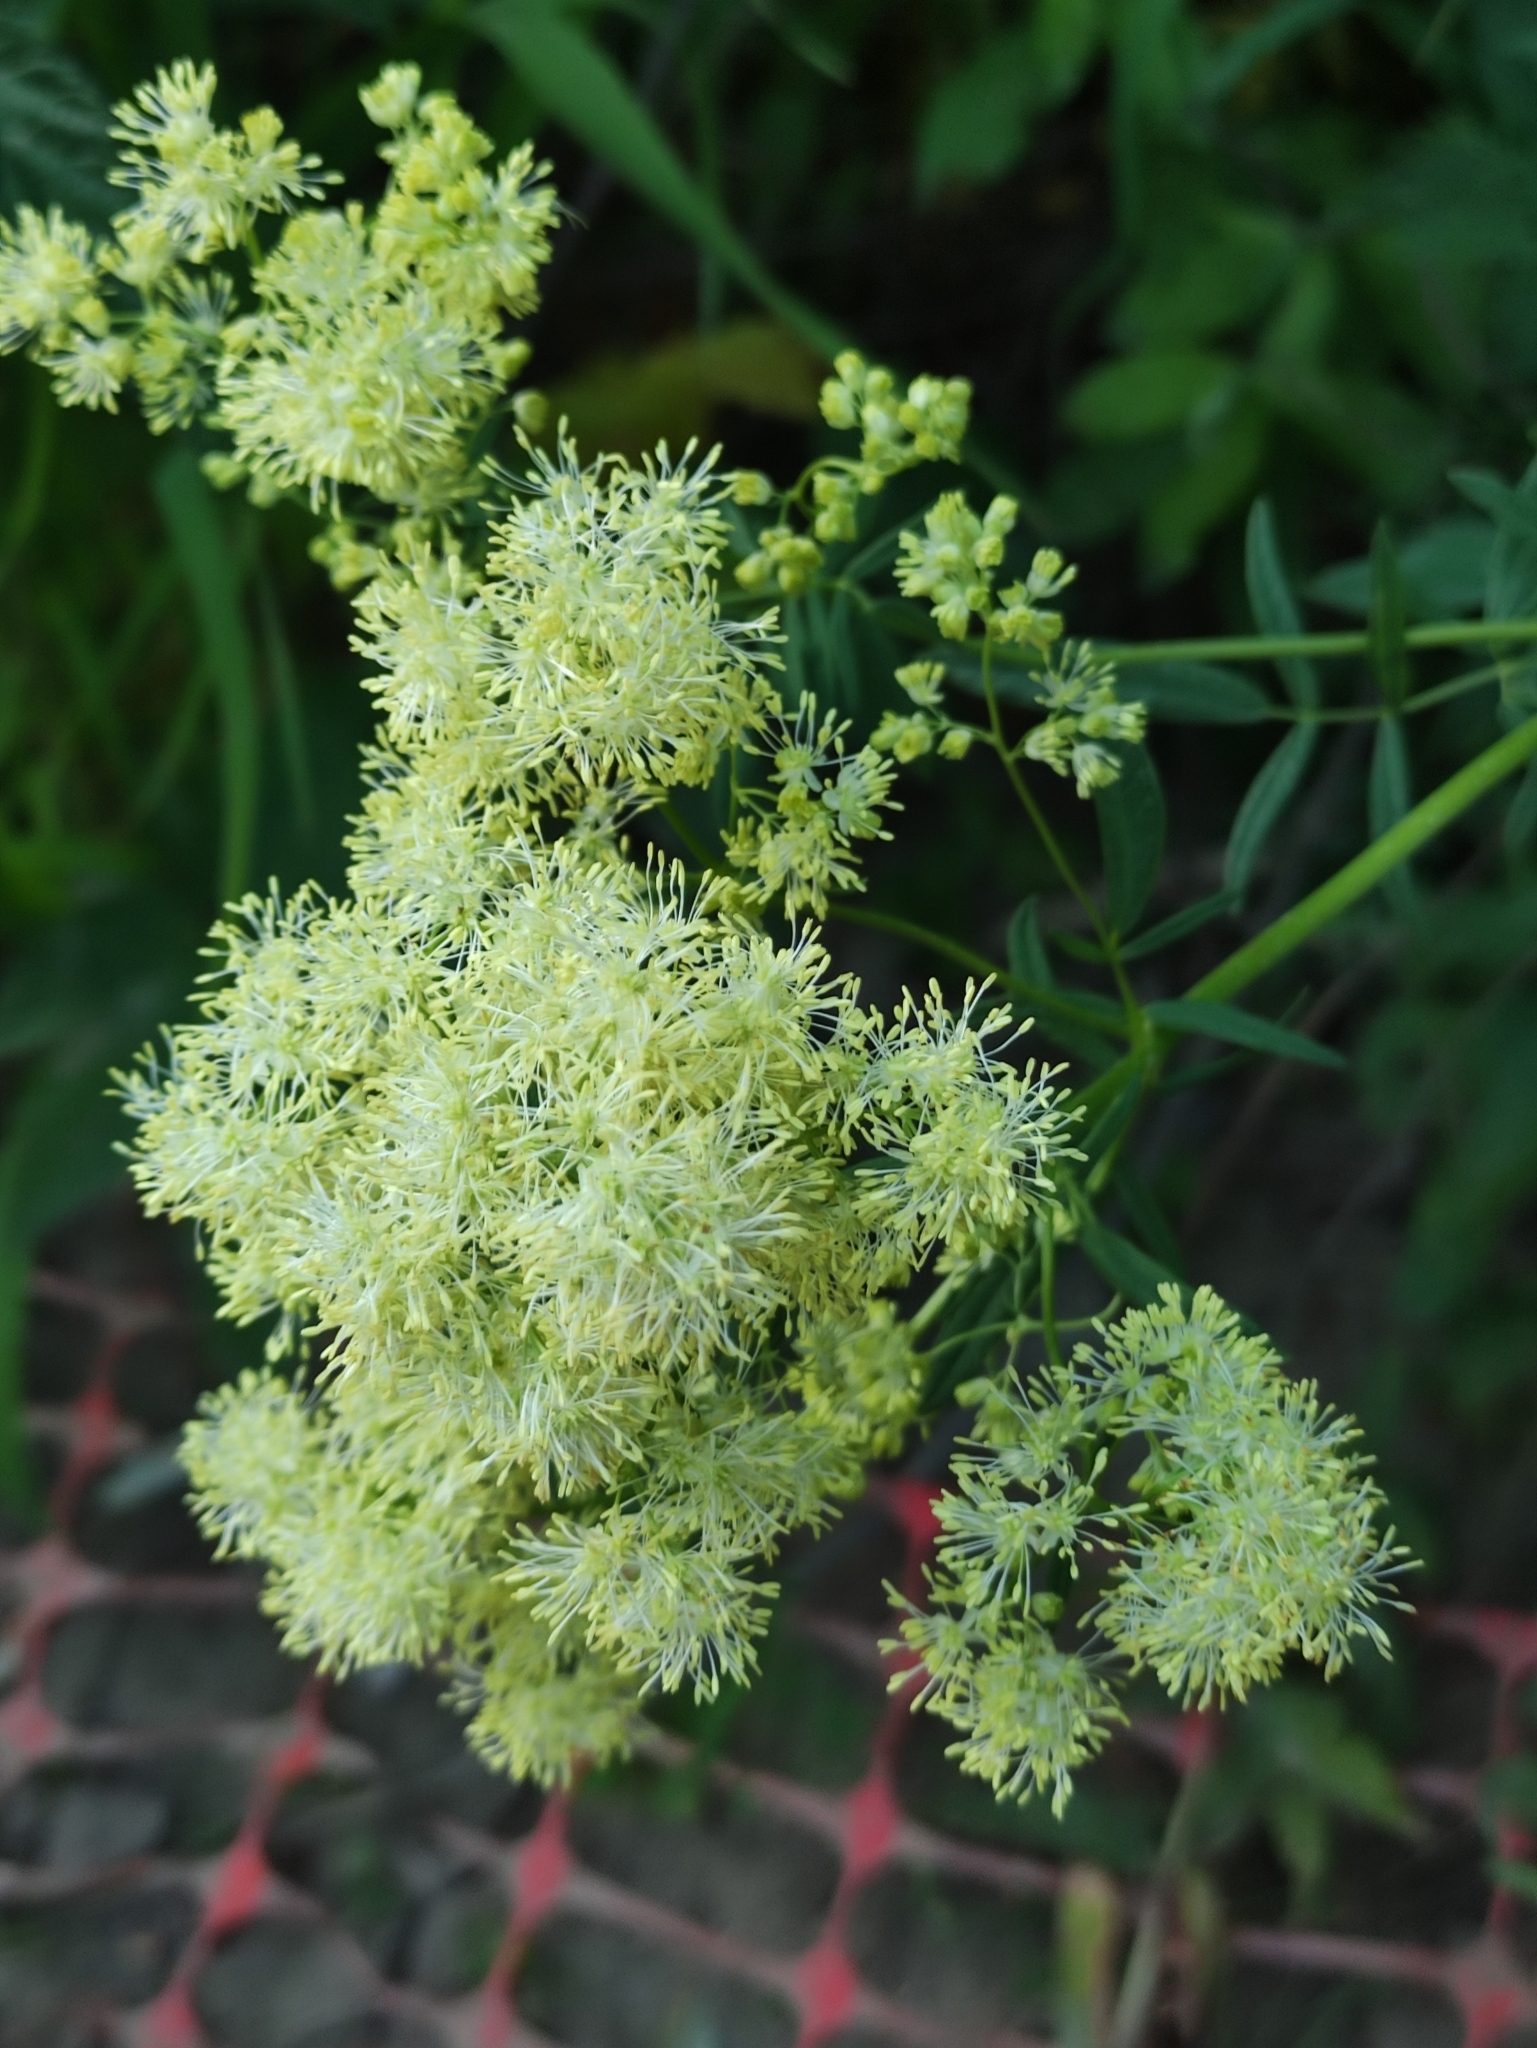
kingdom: Plantae
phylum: Tracheophyta
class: Magnoliopsida
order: Ranunculales
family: Ranunculaceae
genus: Thalictrum
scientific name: Thalictrum lucidum
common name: Shining meadow-rue
